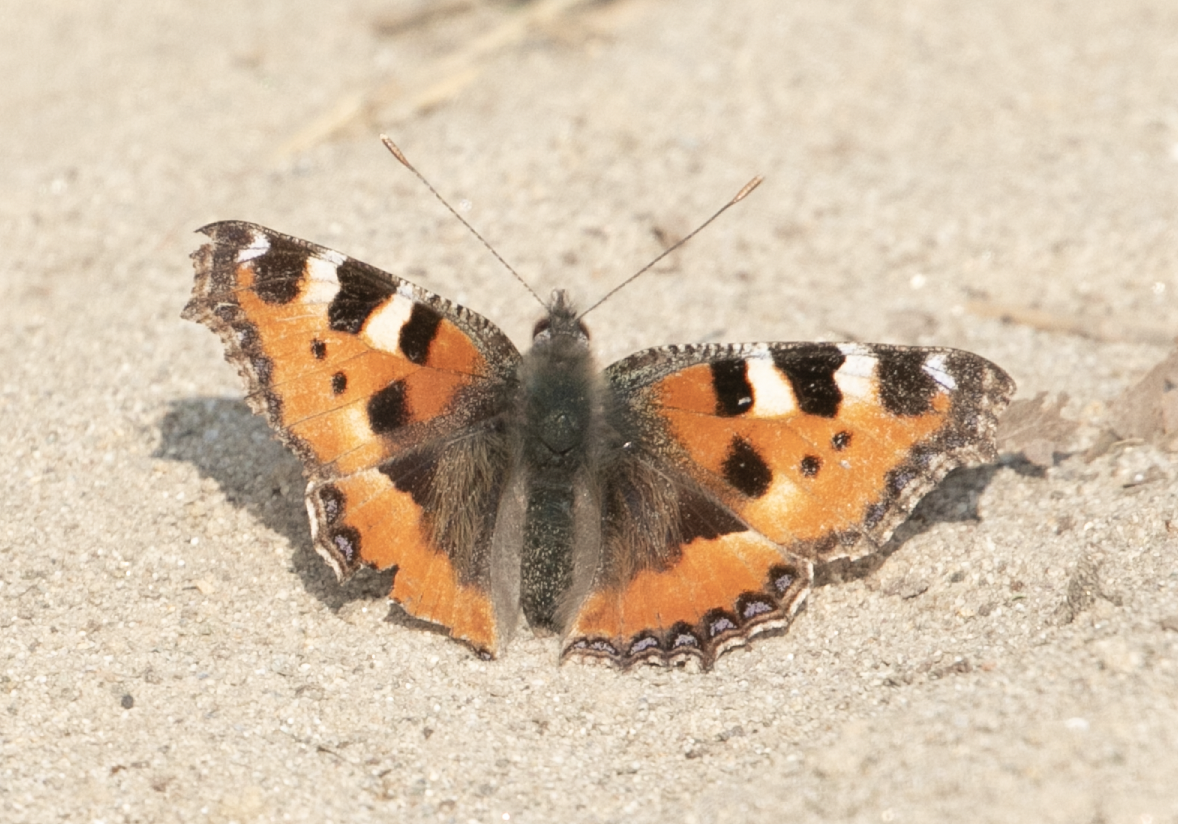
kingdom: Animalia
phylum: Arthropoda
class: Insecta
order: Lepidoptera
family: Nymphalidae
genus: Aglais
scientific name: Aglais urticae
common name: Small tortoiseshell
